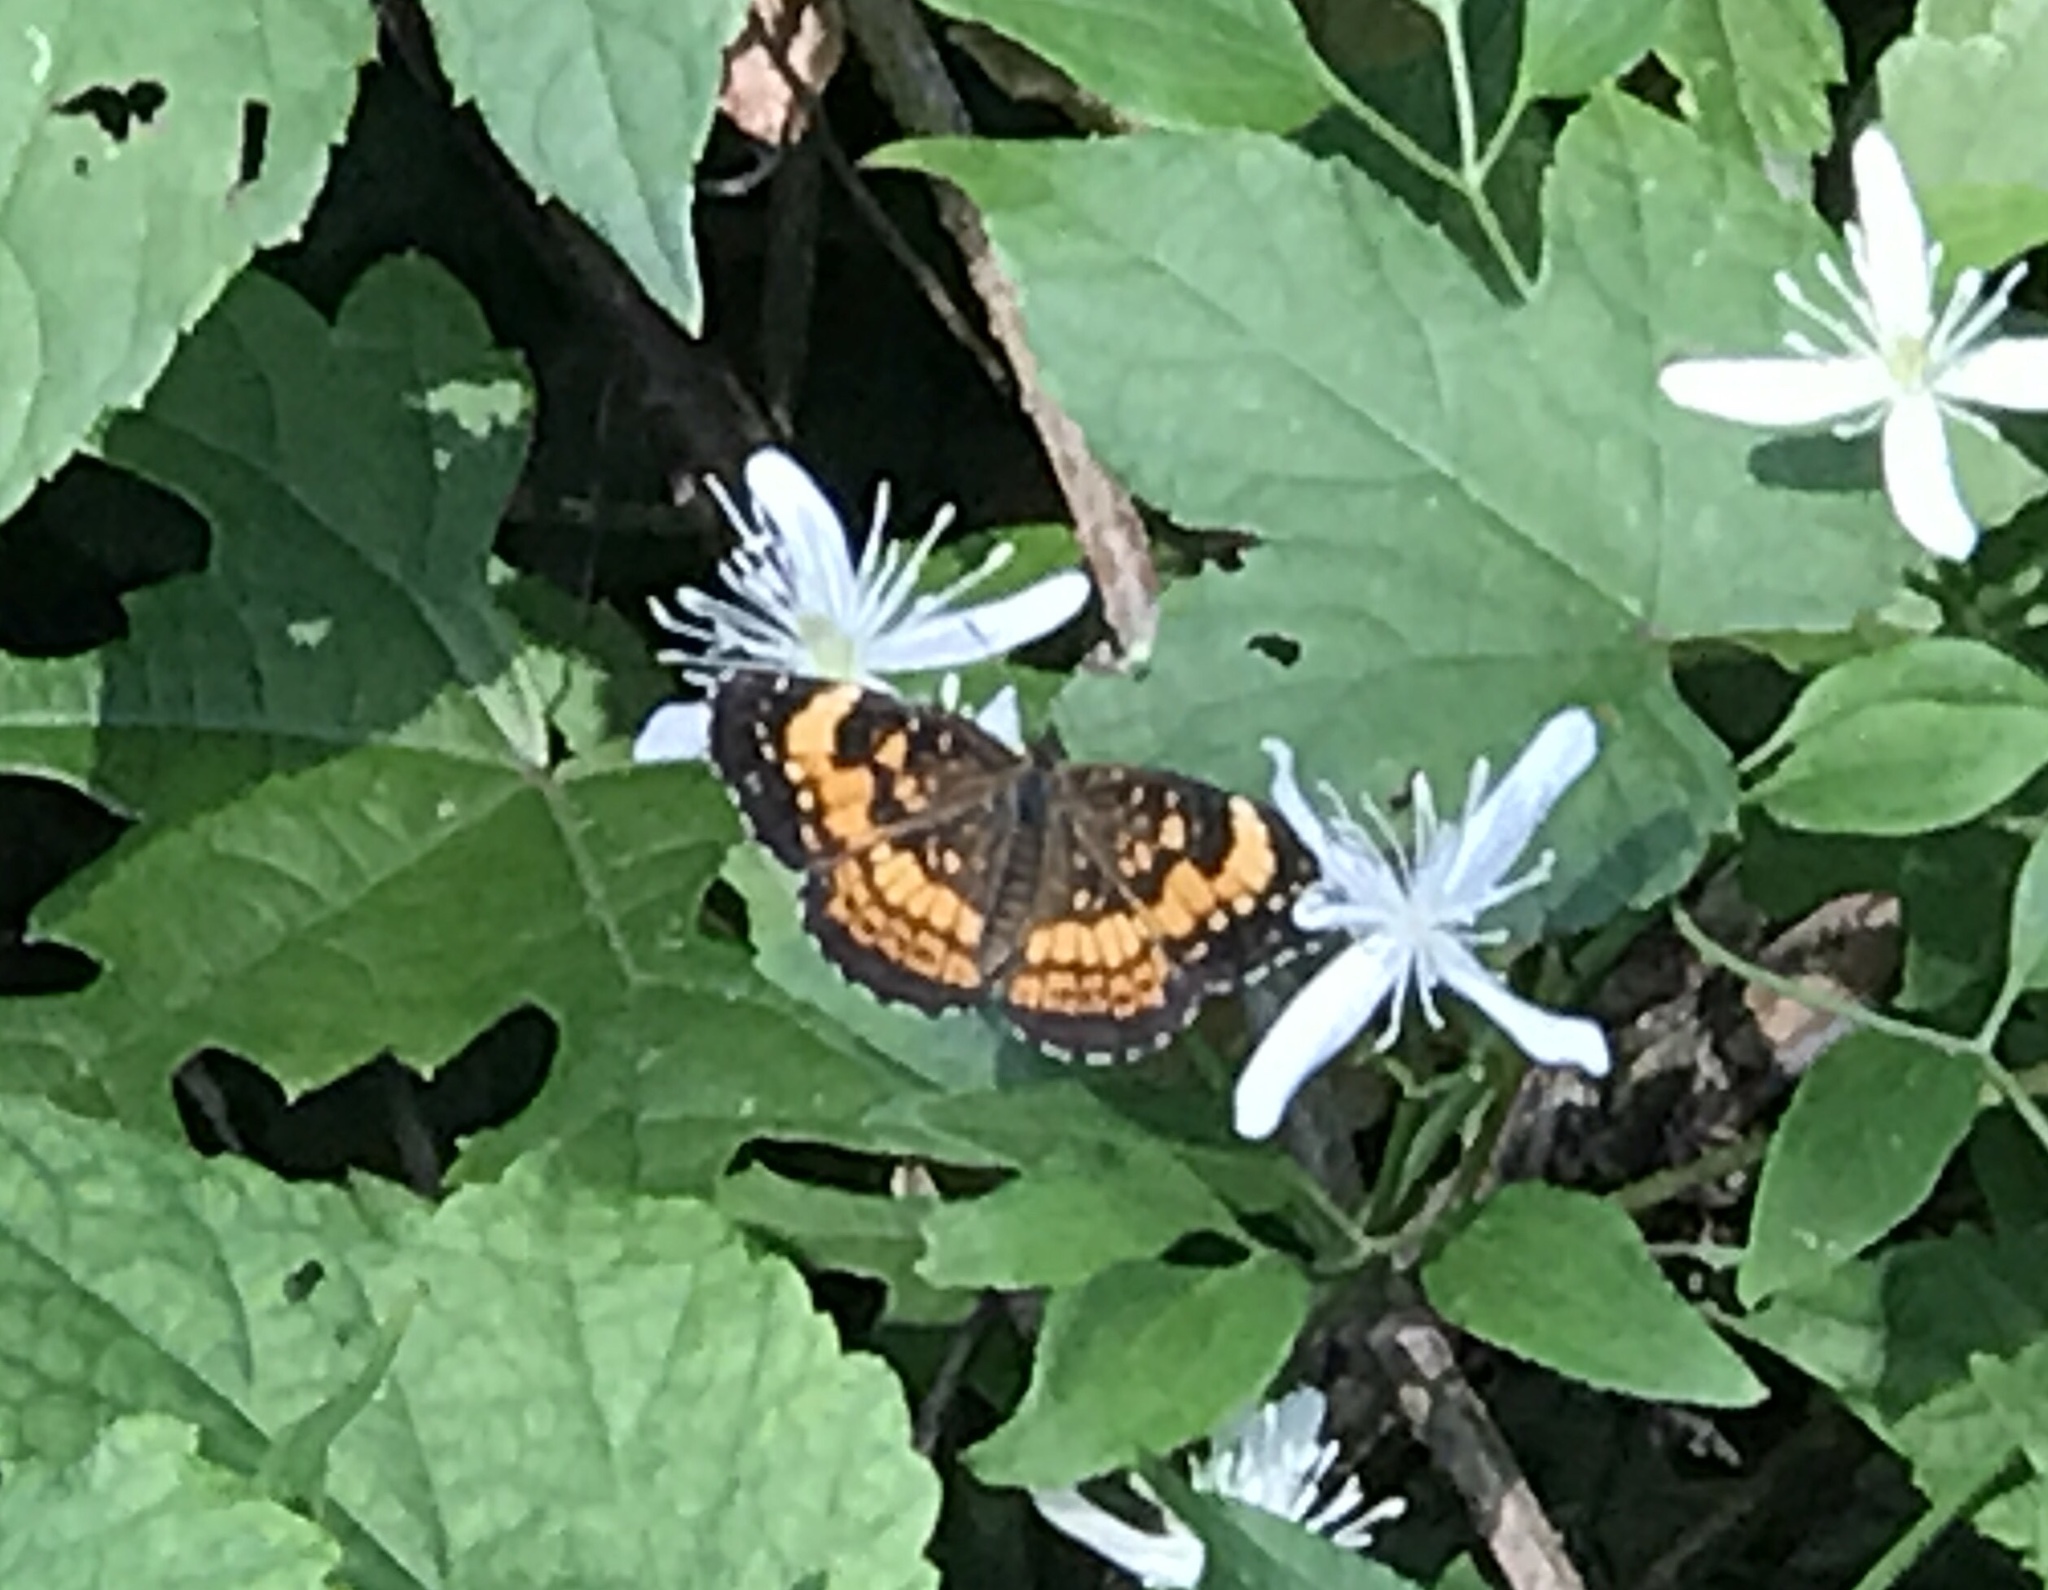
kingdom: Animalia
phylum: Arthropoda
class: Insecta
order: Lepidoptera
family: Nymphalidae
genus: Chlosyne
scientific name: Chlosyne nycteis
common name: Silvery checkerspot
